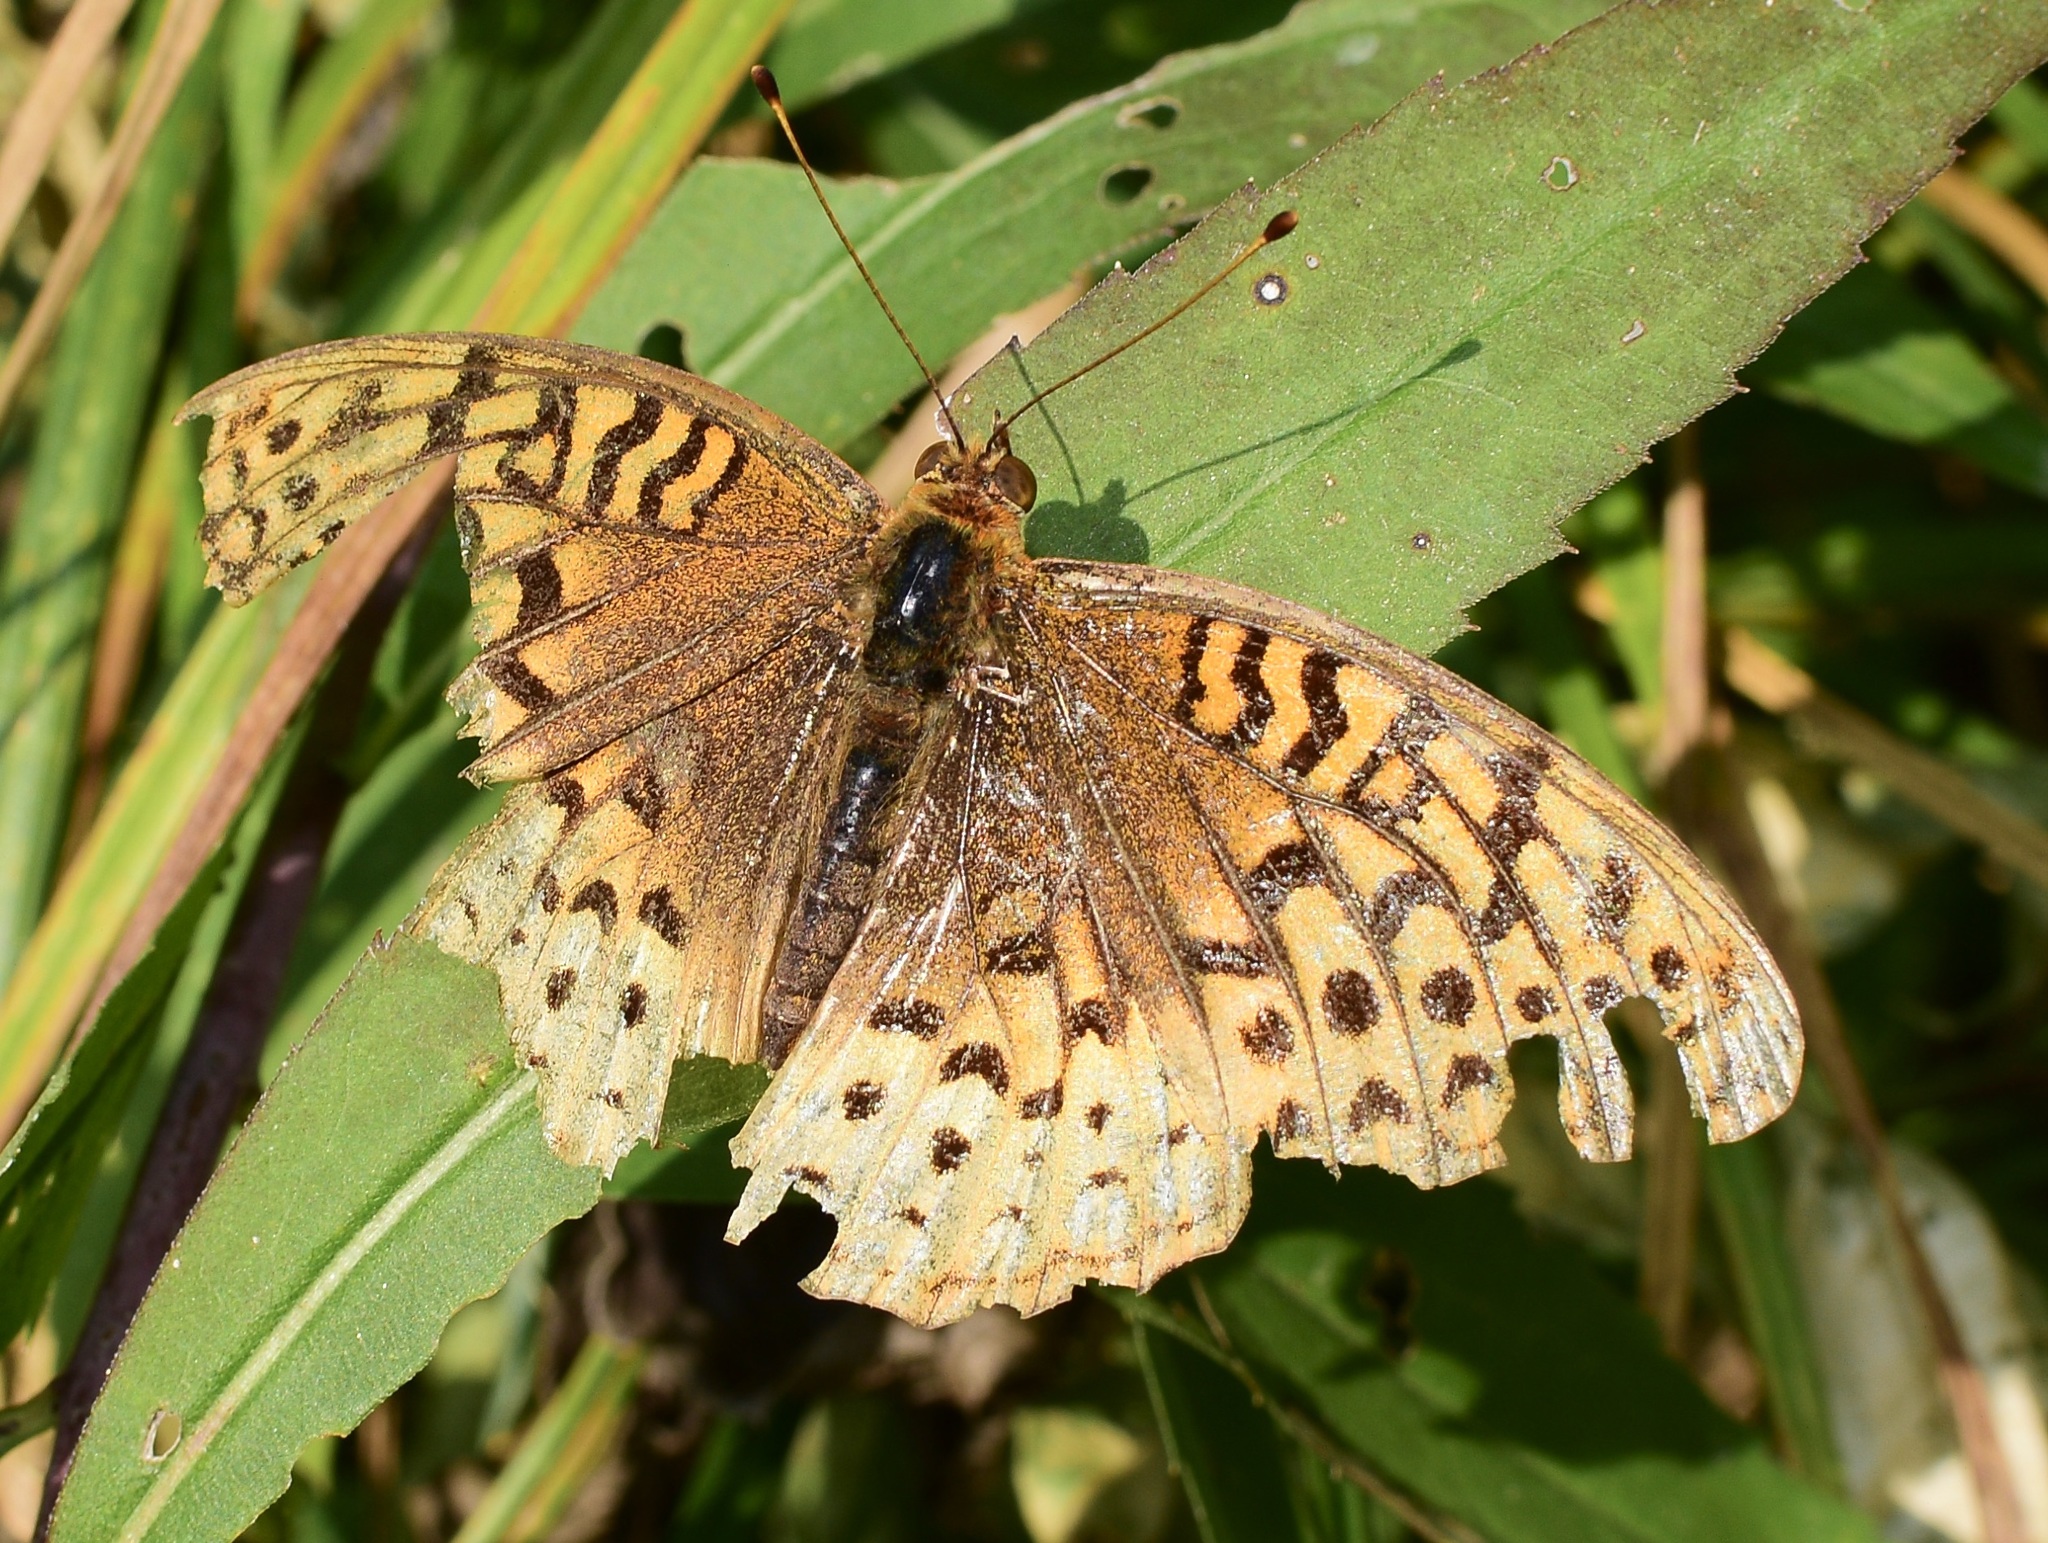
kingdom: Animalia
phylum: Arthropoda
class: Insecta
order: Lepidoptera
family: Nymphalidae
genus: Speyeria
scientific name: Speyeria cybele
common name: Great spangled fritillary
